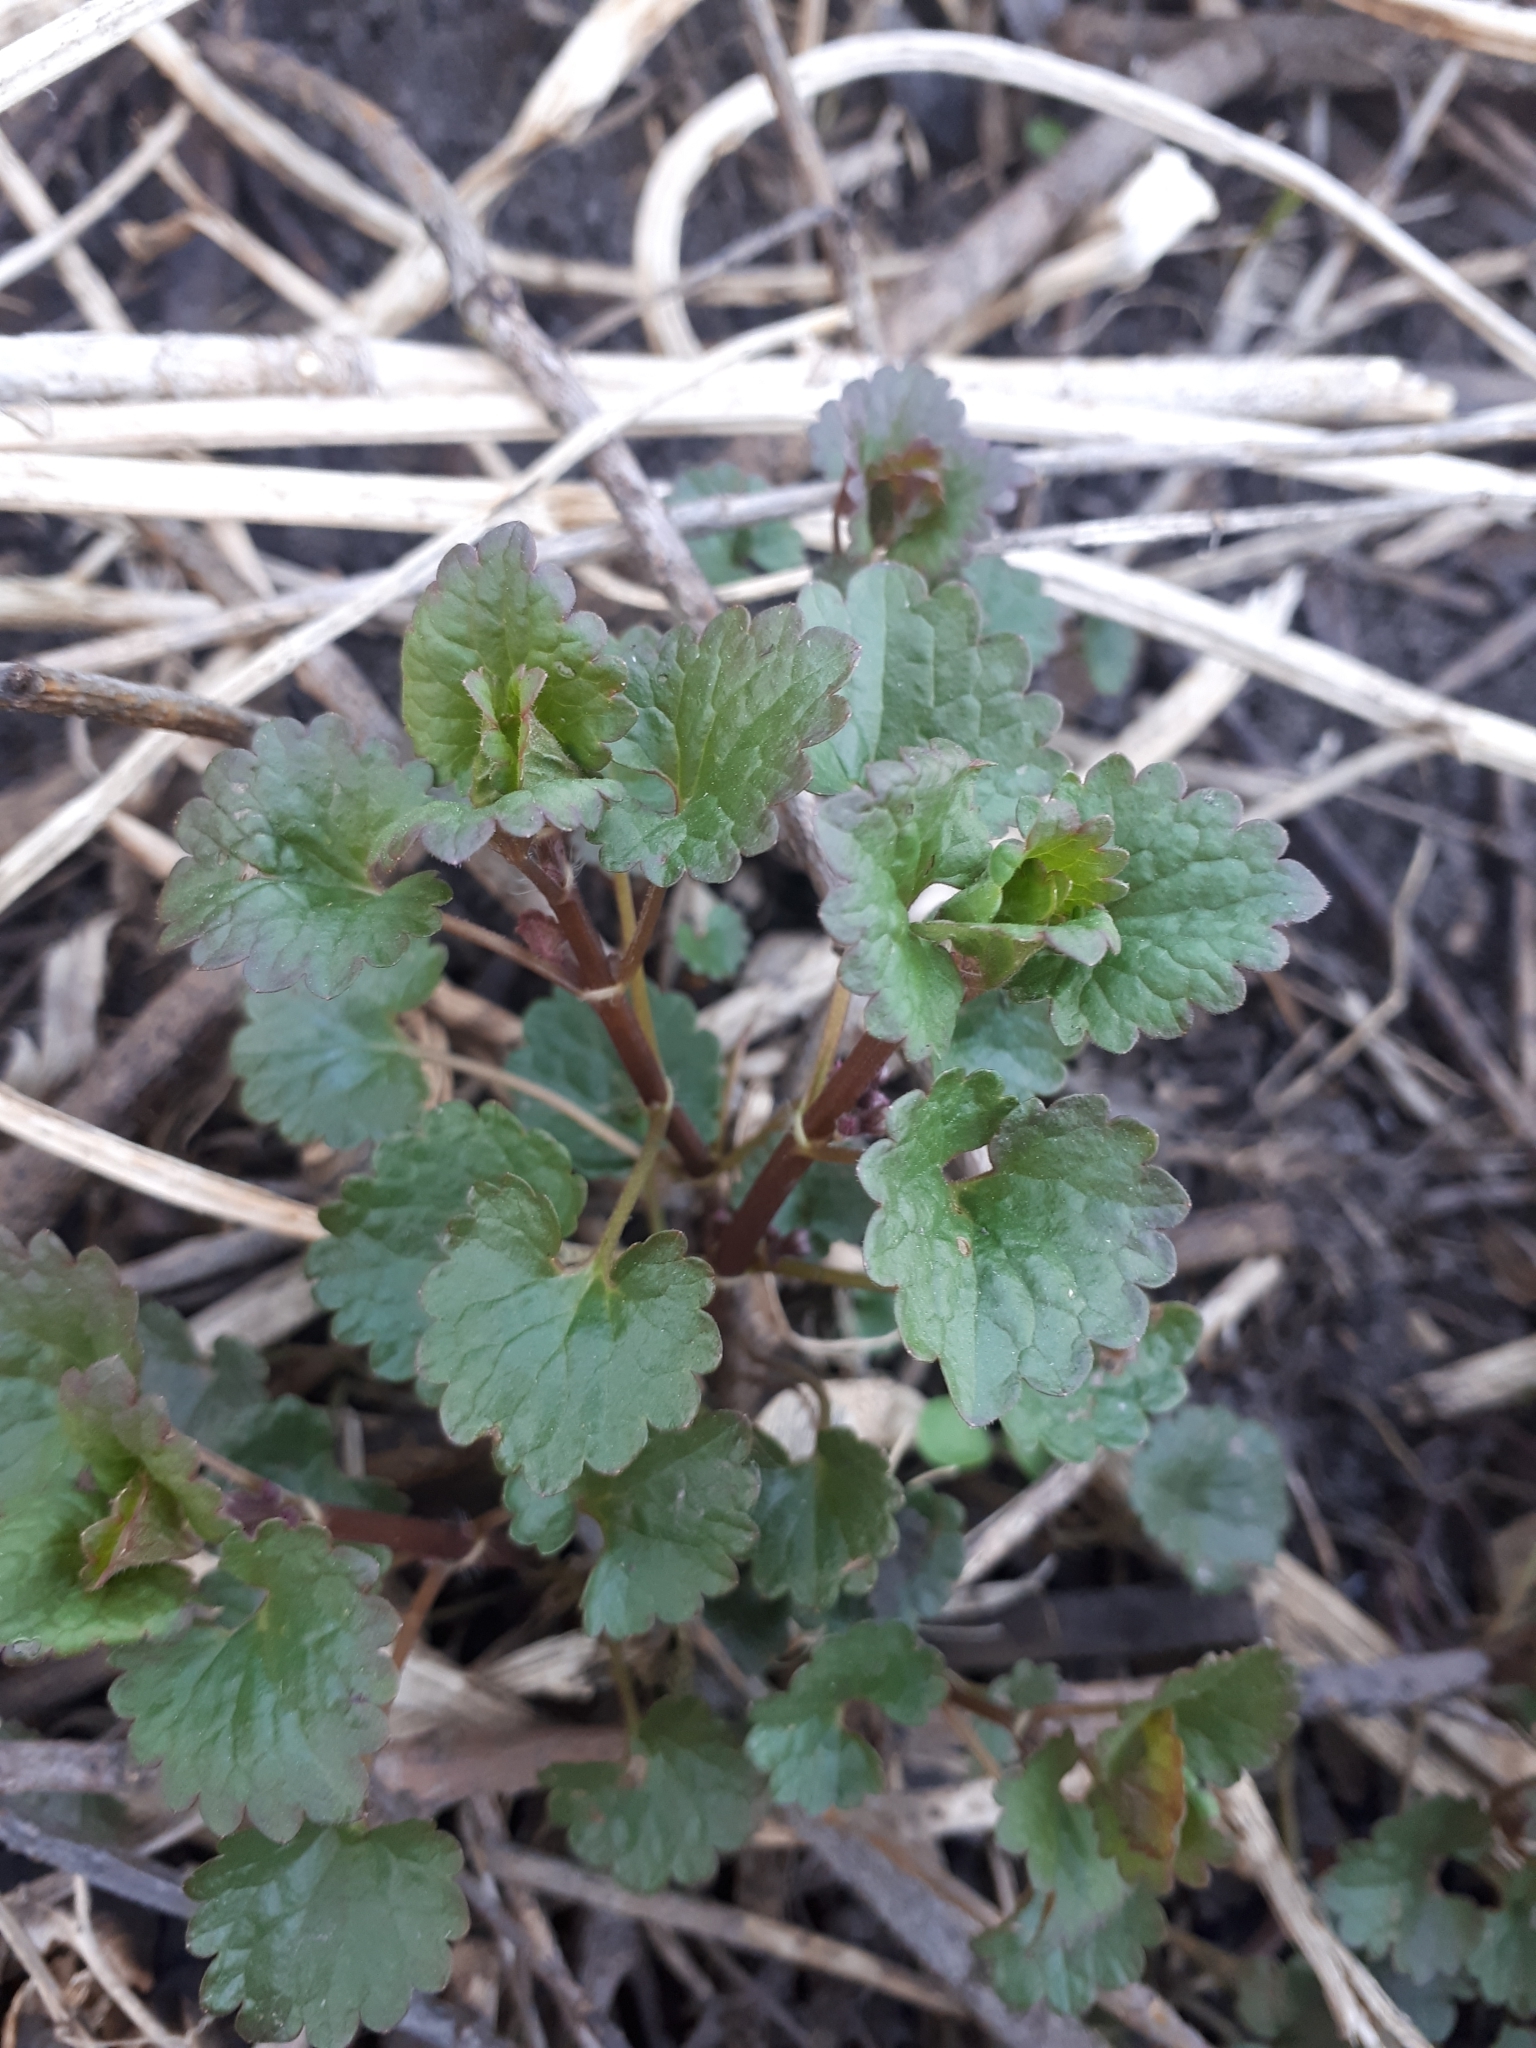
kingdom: Plantae
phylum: Tracheophyta
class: Magnoliopsida
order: Lamiales
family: Lamiaceae
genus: Glechoma
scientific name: Glechoma hederacea
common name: Ground ivy
